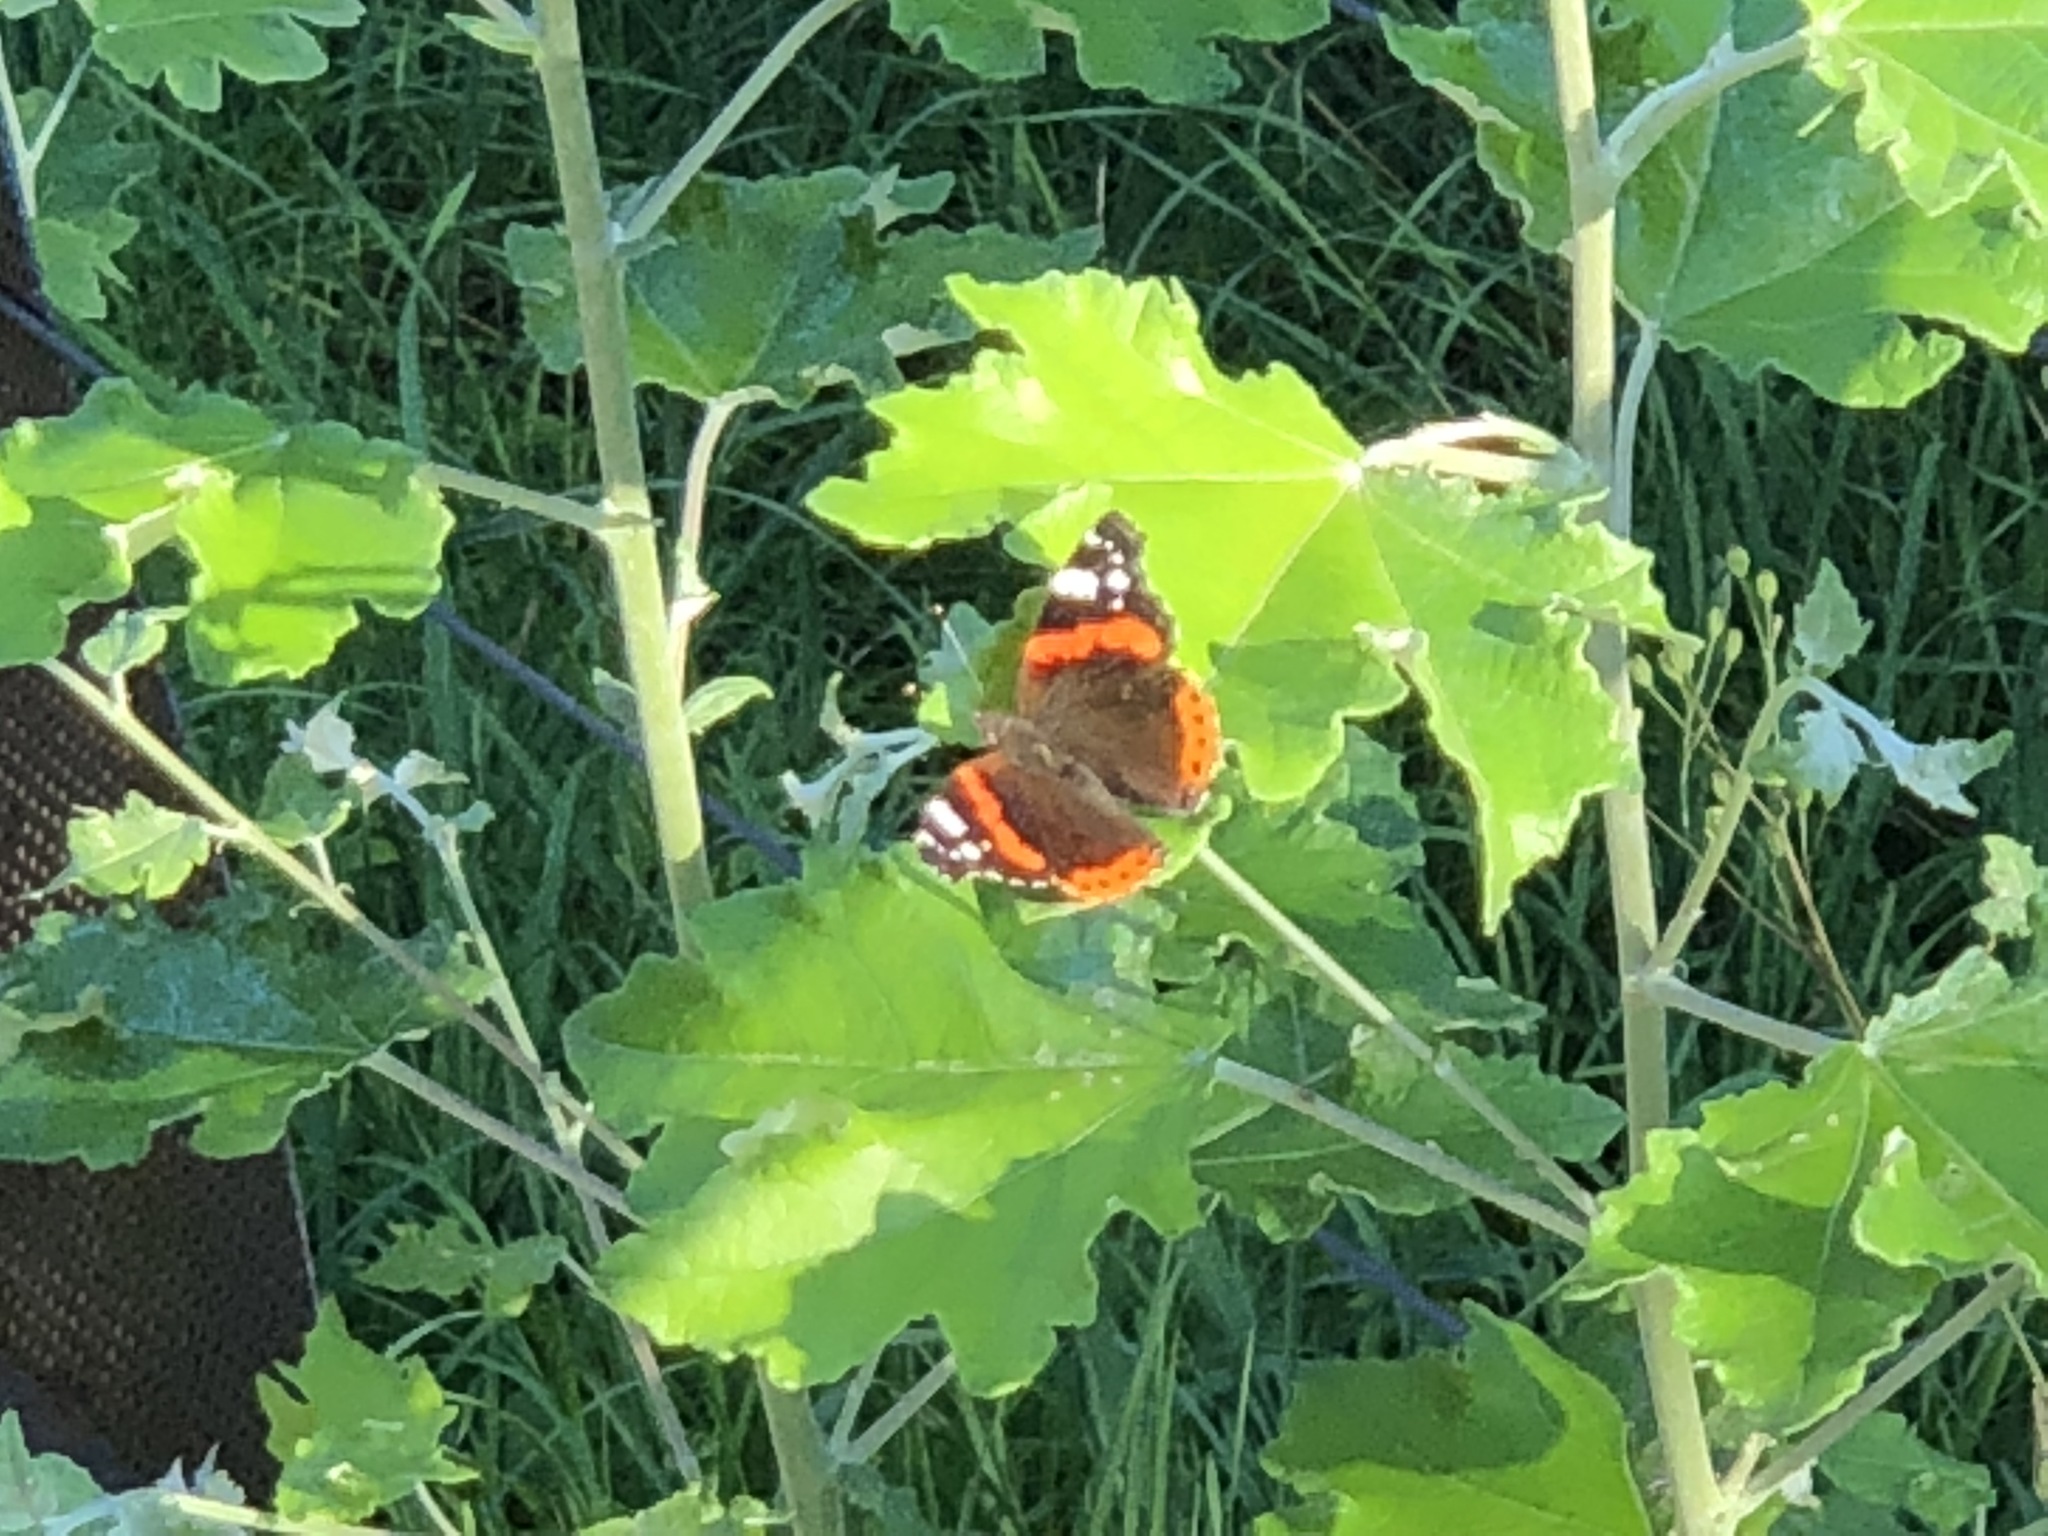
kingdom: Animalia
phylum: Arthropoda
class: Insecta
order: Lepidoptera
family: Nymphalidae
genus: Vanessa
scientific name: Vanessa atalanta
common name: Red admiral
